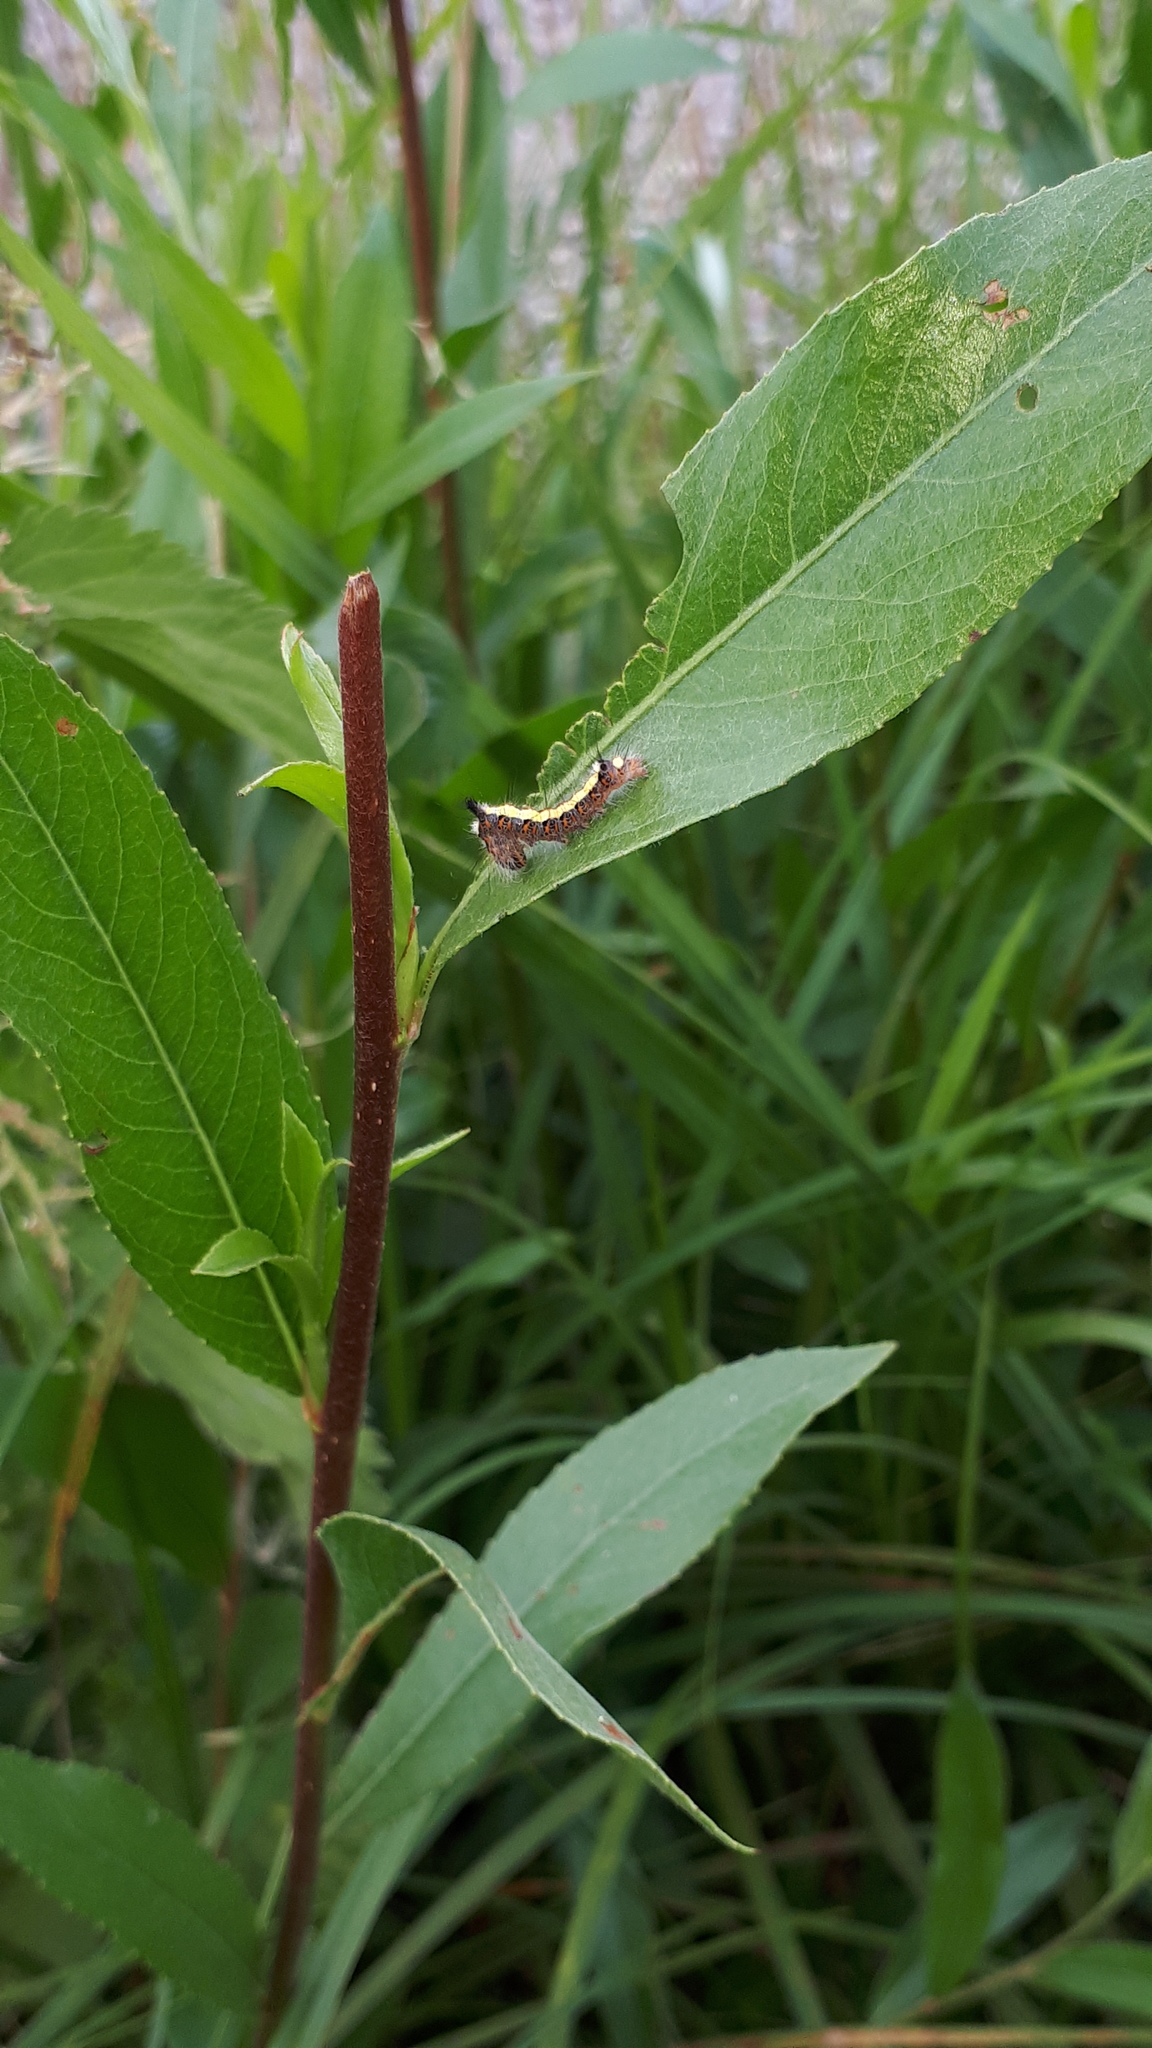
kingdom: Animalia
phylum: Arthropoda
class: Insecta
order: Lepidoptera
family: Noctuidae
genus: Acronicta
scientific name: Acronicta psi
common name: Grey dagger
